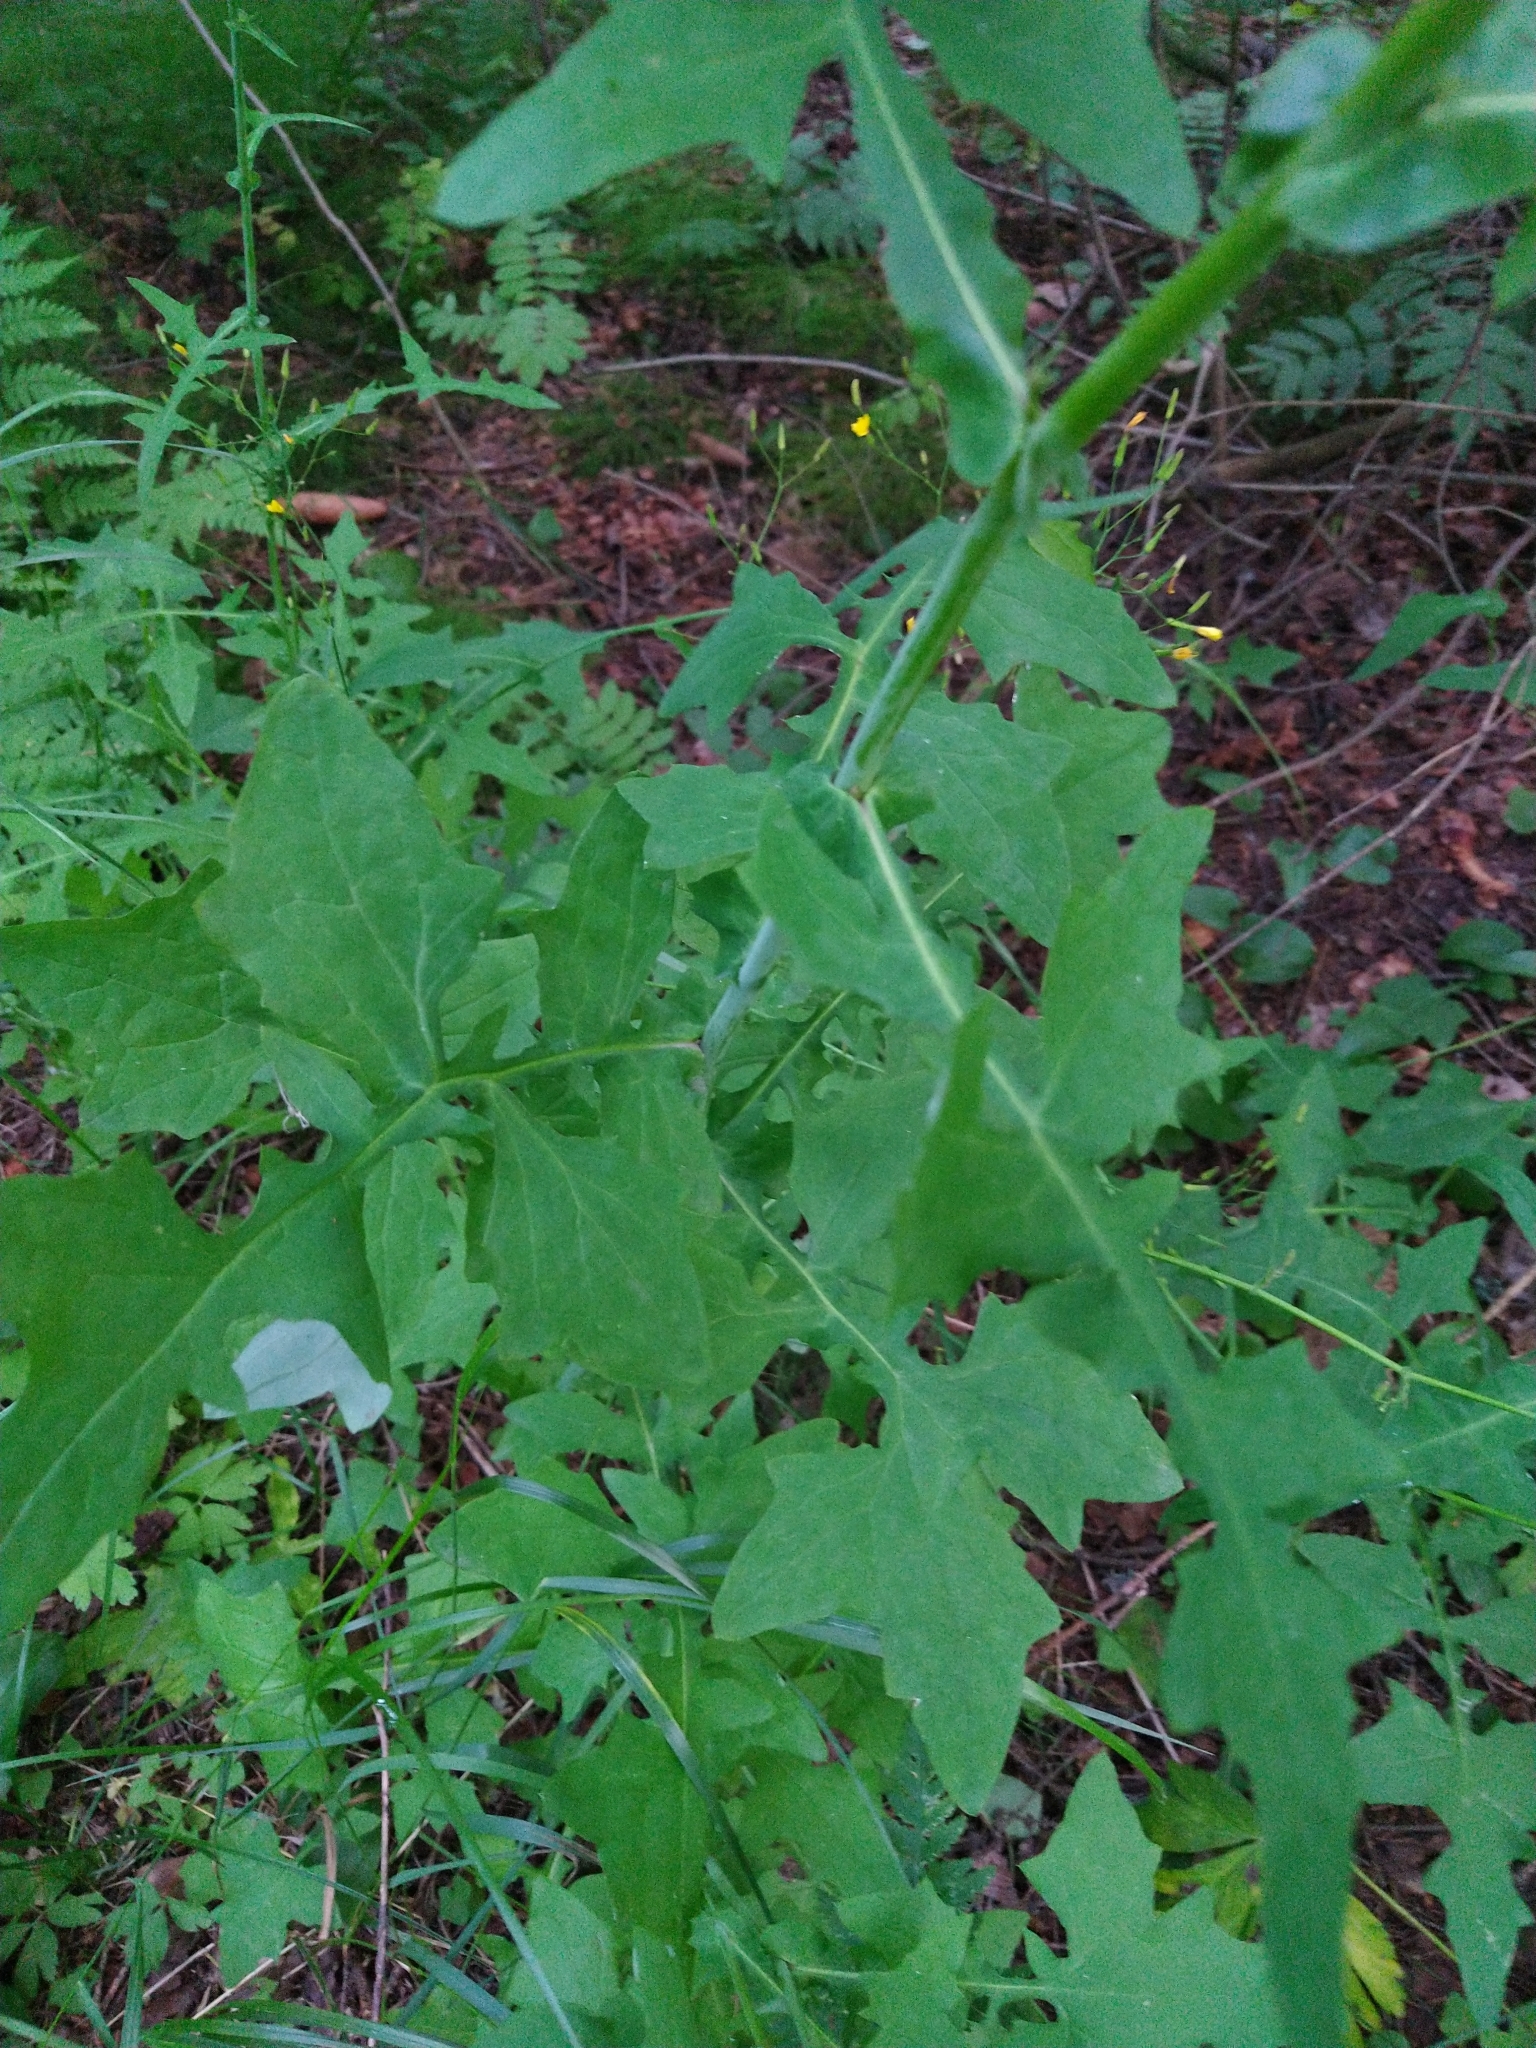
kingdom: Plantae
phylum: Tracheophyta
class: Magnoliopsida
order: Asterales
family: Asteraceae
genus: Mycelis
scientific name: Mycelis muralis
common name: Wall lettuce
